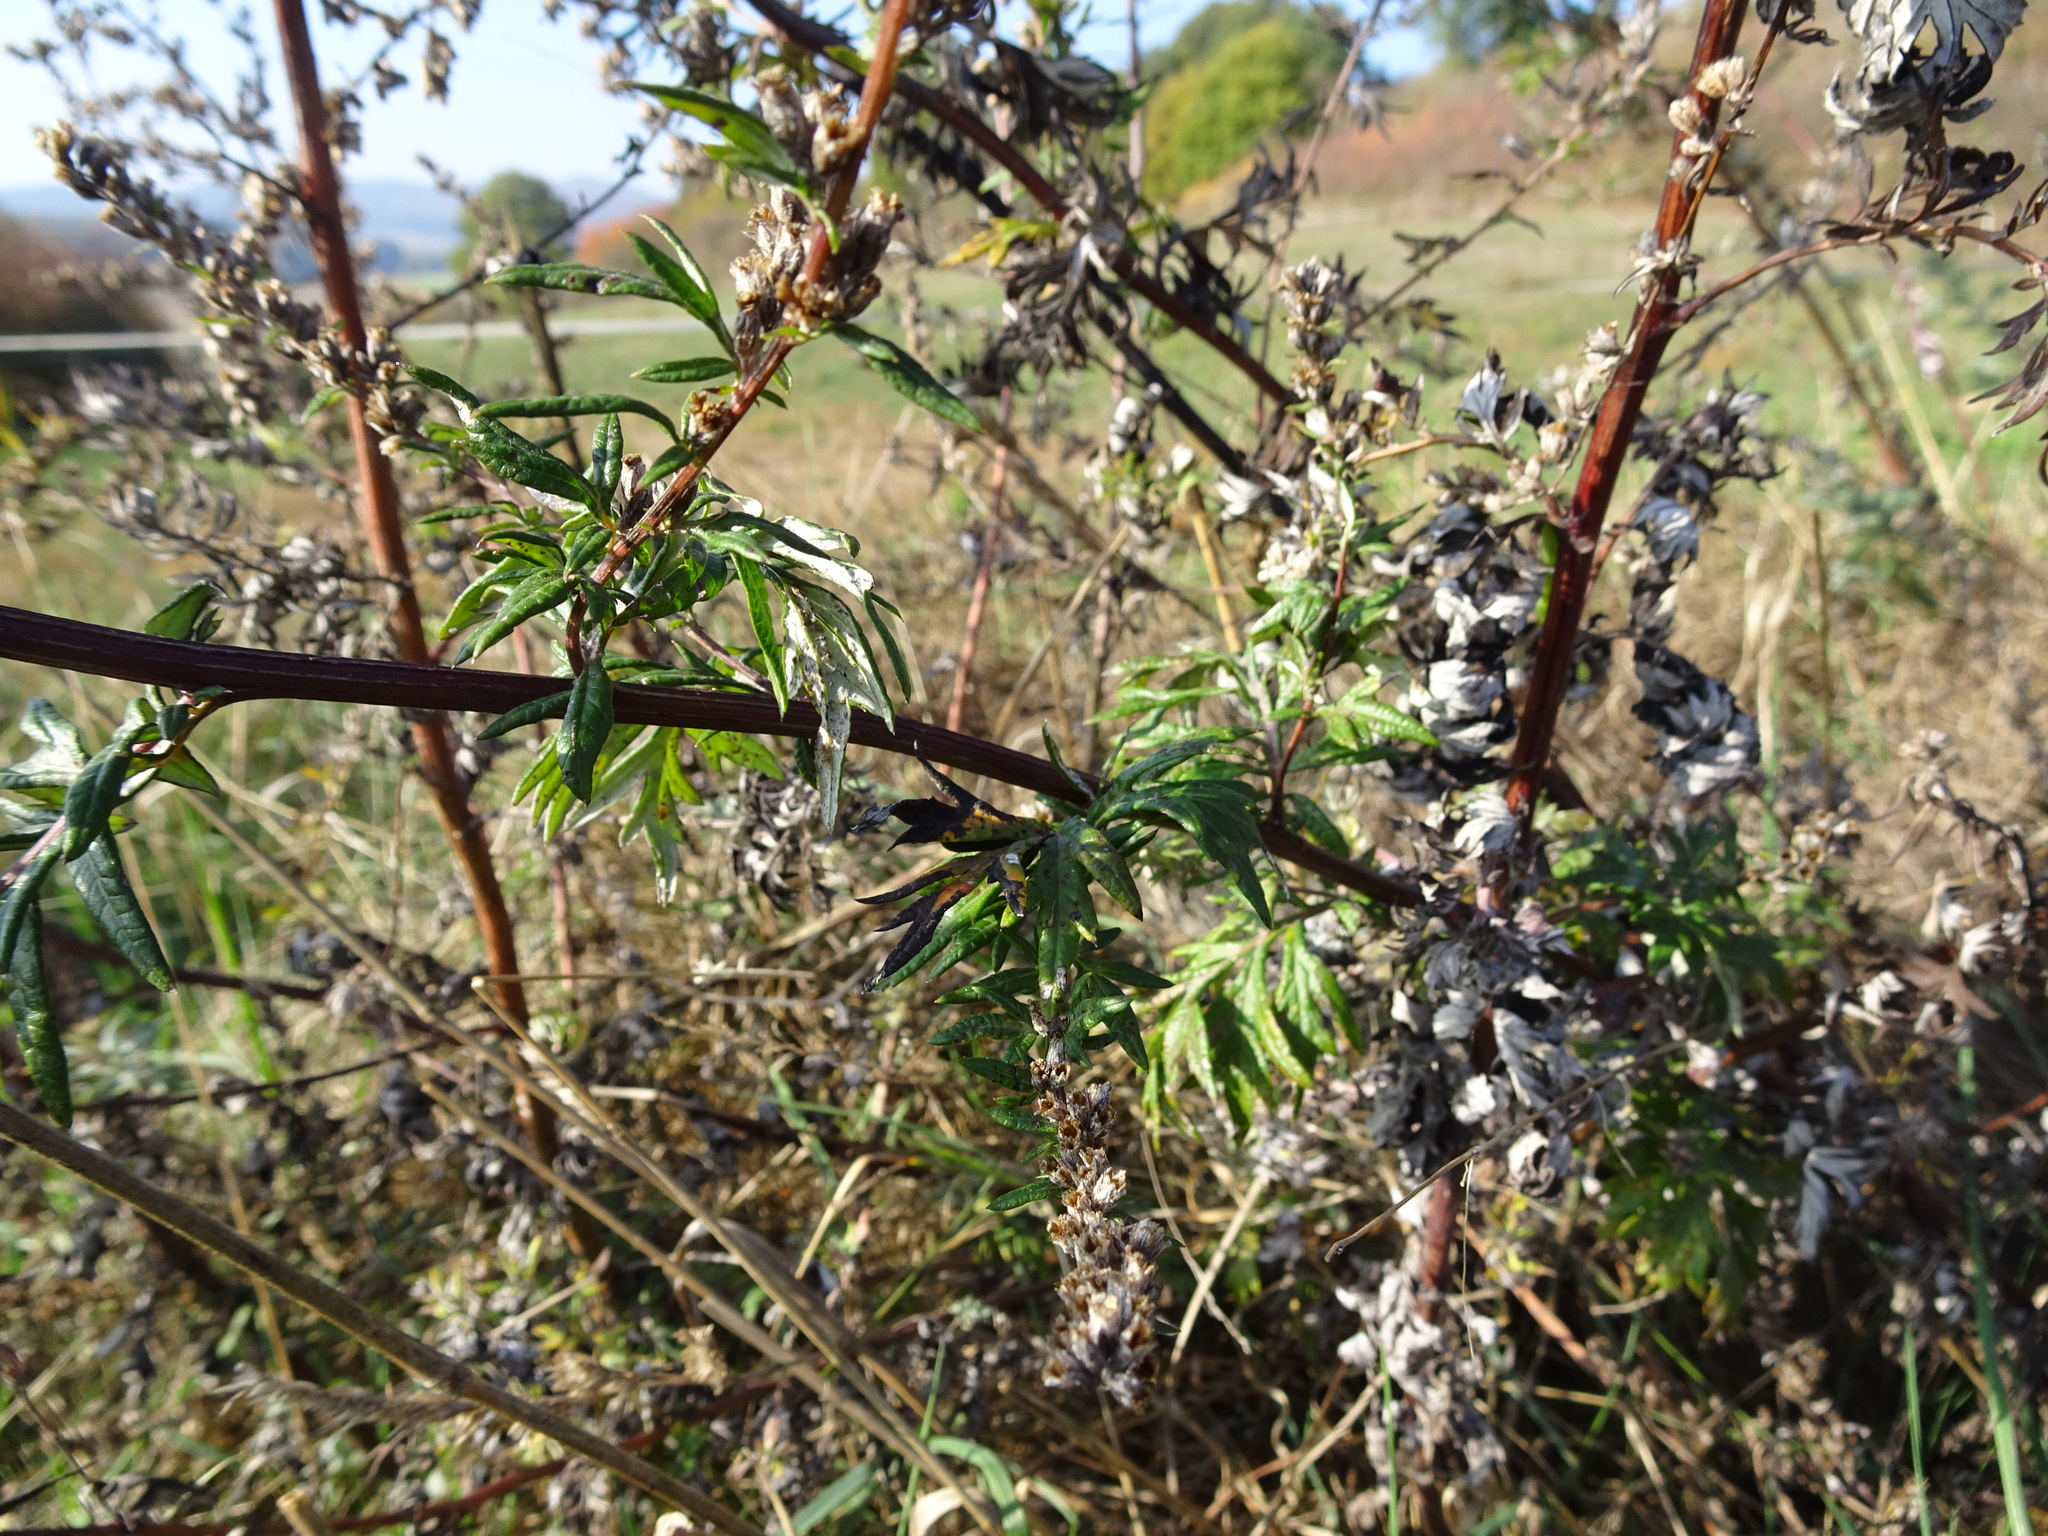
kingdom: Plantae
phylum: Tracheophyta
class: Magnoliopsida
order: Asterales
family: Asteraceae
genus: Artemisia
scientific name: Artemisia vulgaris
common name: Mugwort
